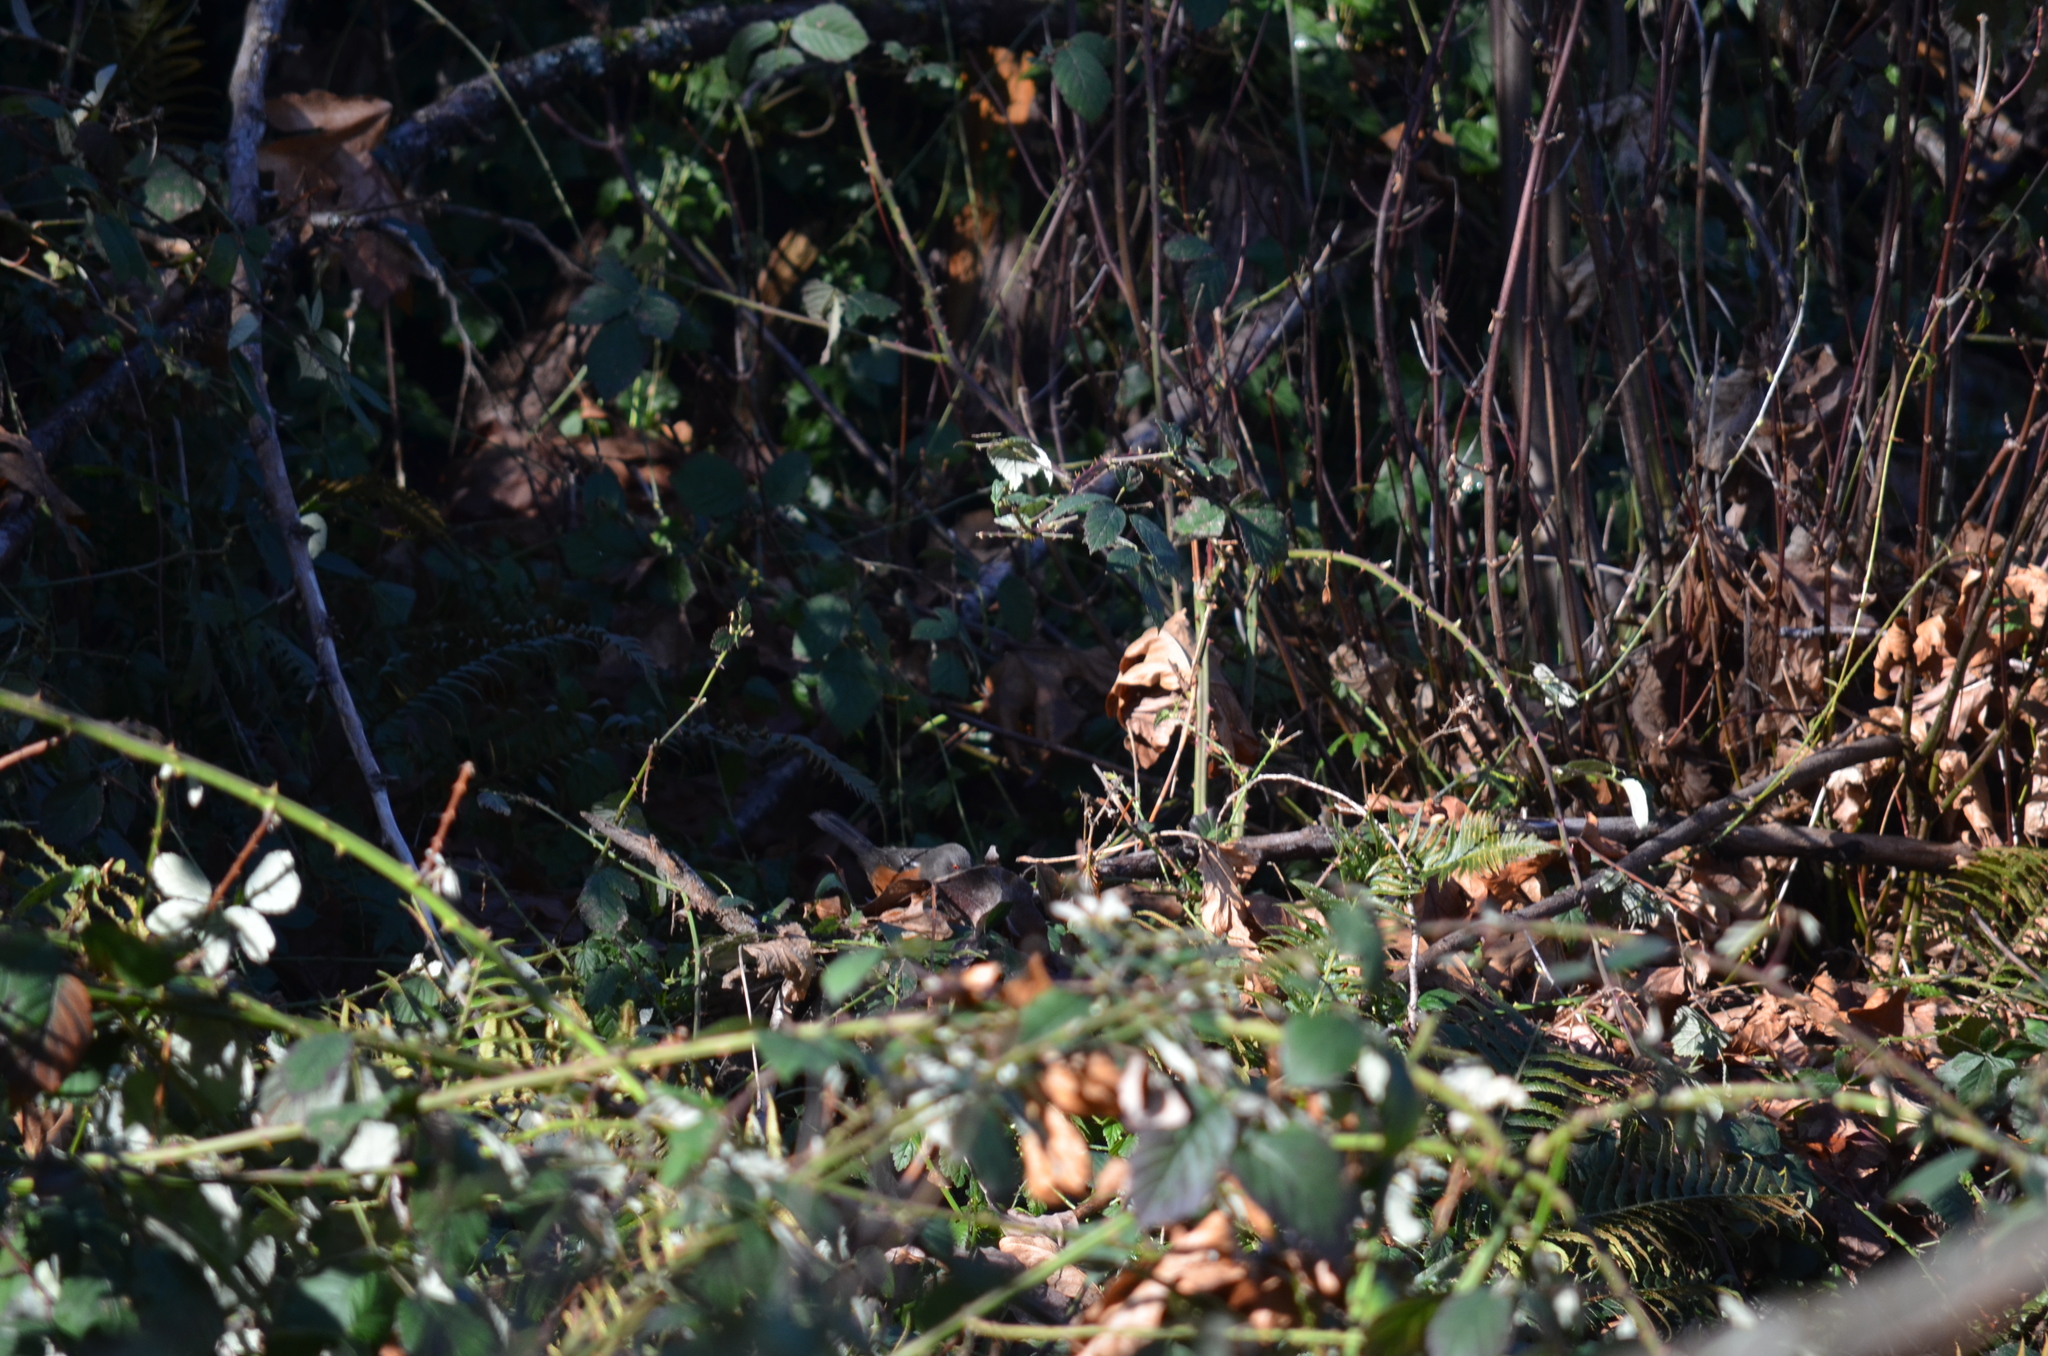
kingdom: Animalia
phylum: Chordata
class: Aves
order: Passeriformes
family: Passerellidae
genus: Pipilo
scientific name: Pipilo maculatus
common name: Spotted towhee
